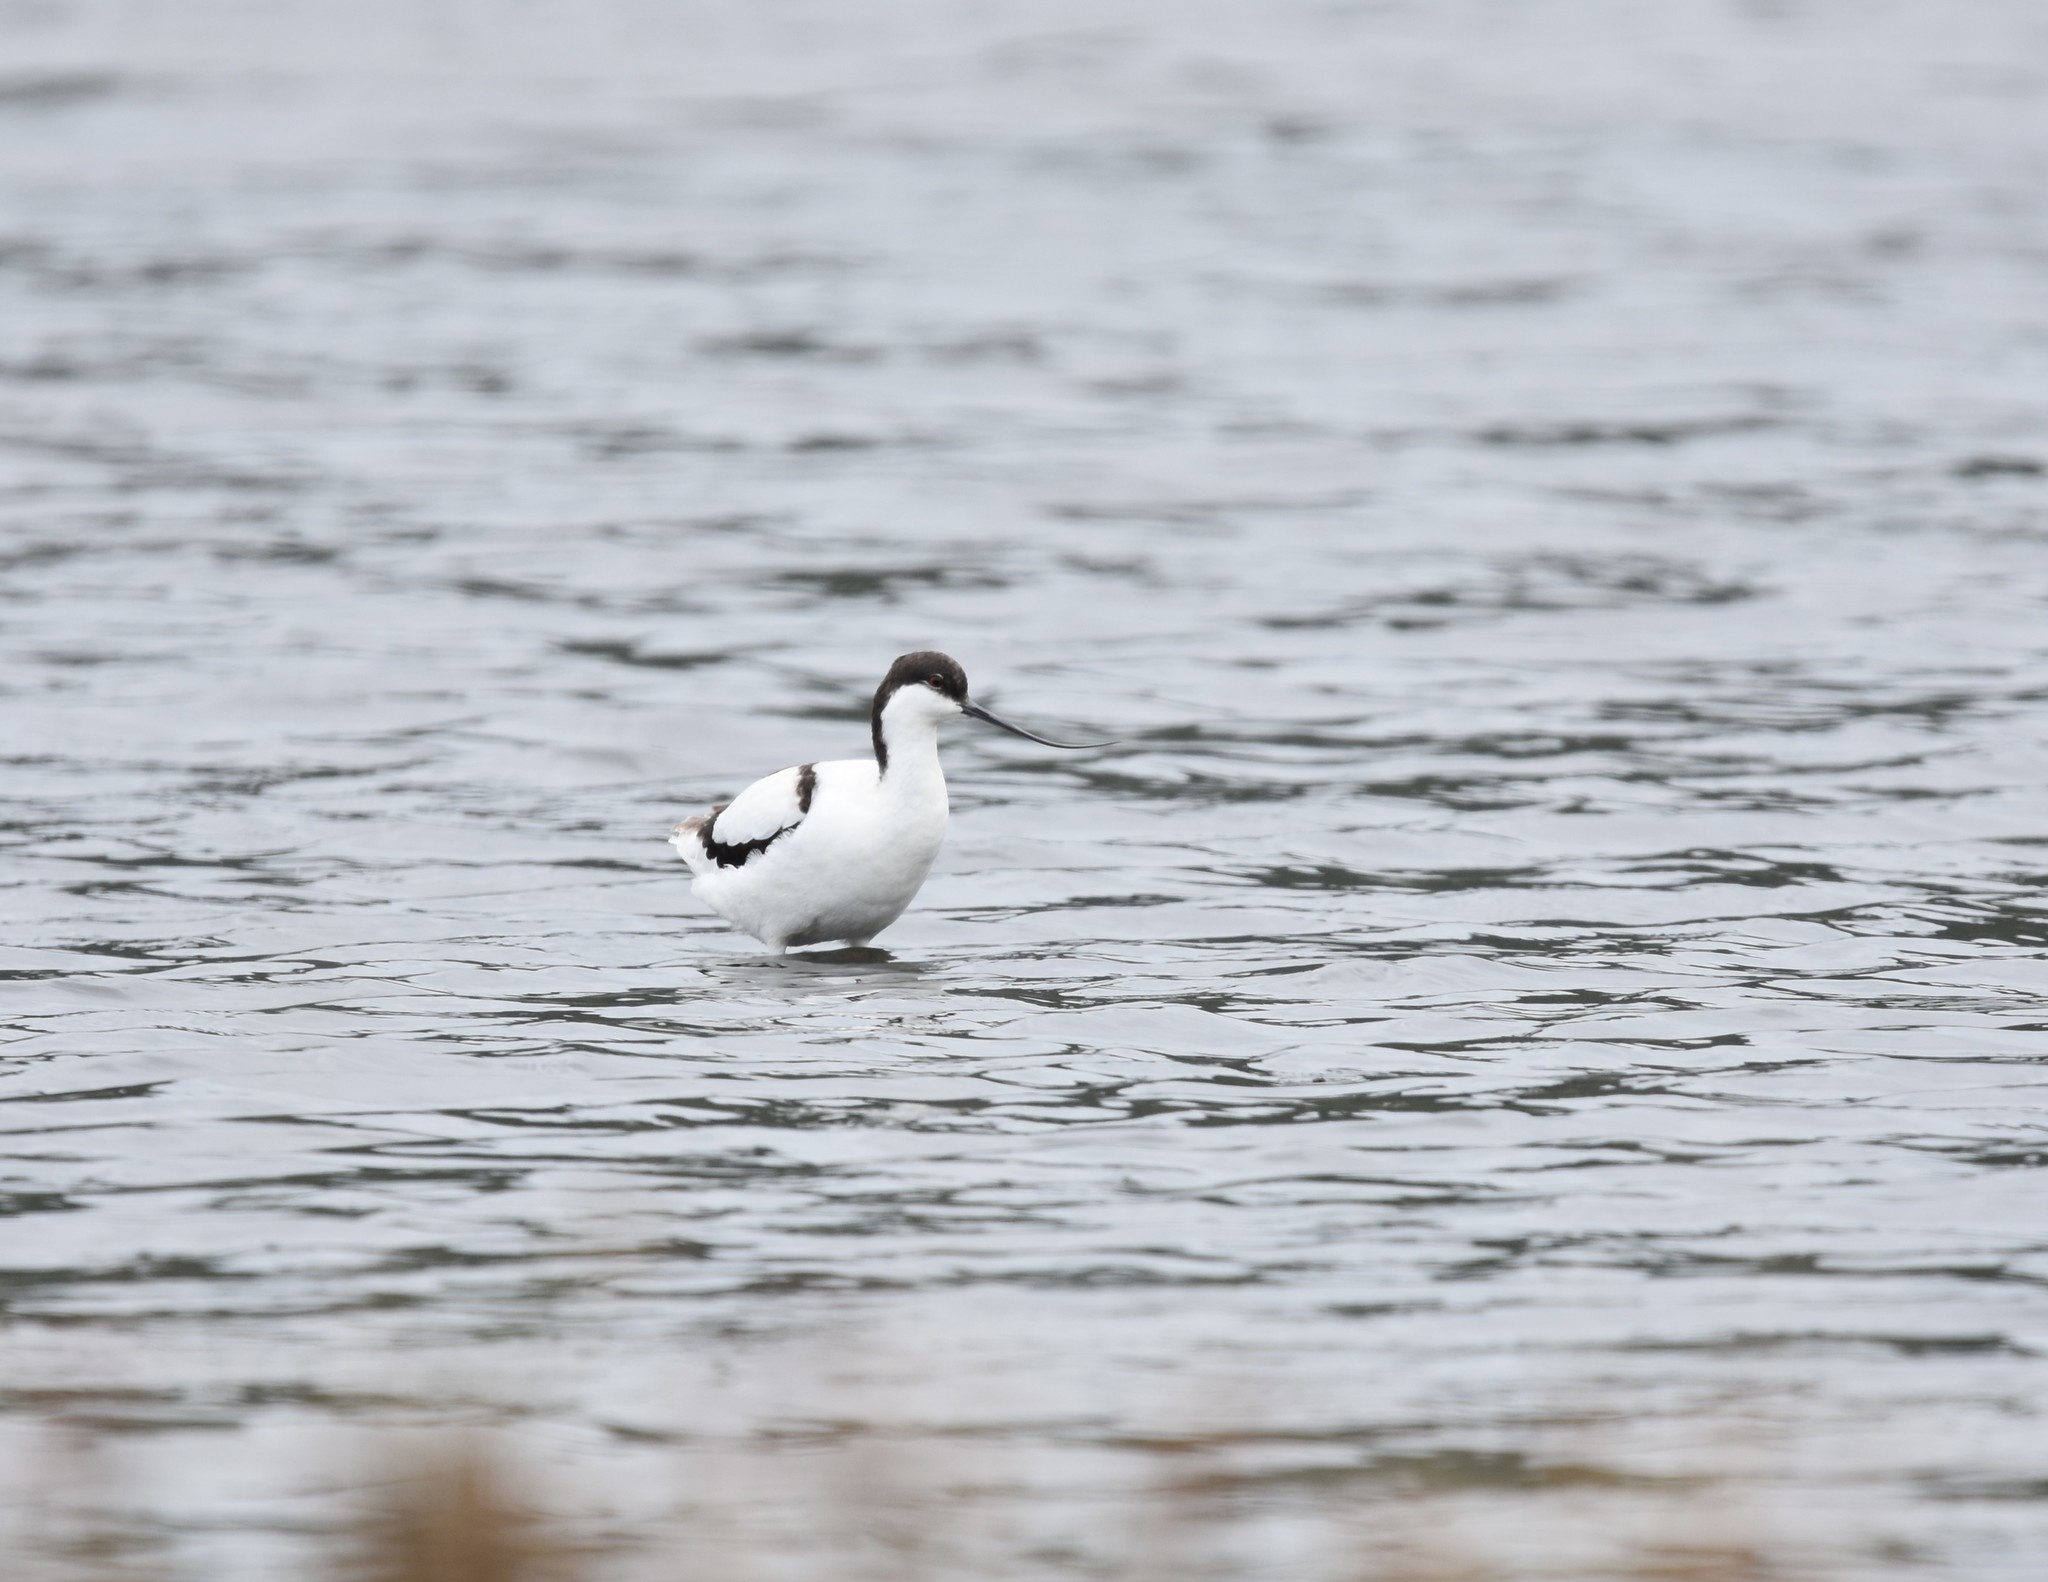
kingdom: Animalia
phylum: Chordata
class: Aves
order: Charadriiformes
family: Recurvirostridae
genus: Recurvirostra
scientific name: Recurvirostra avosetta
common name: Pied avocet
